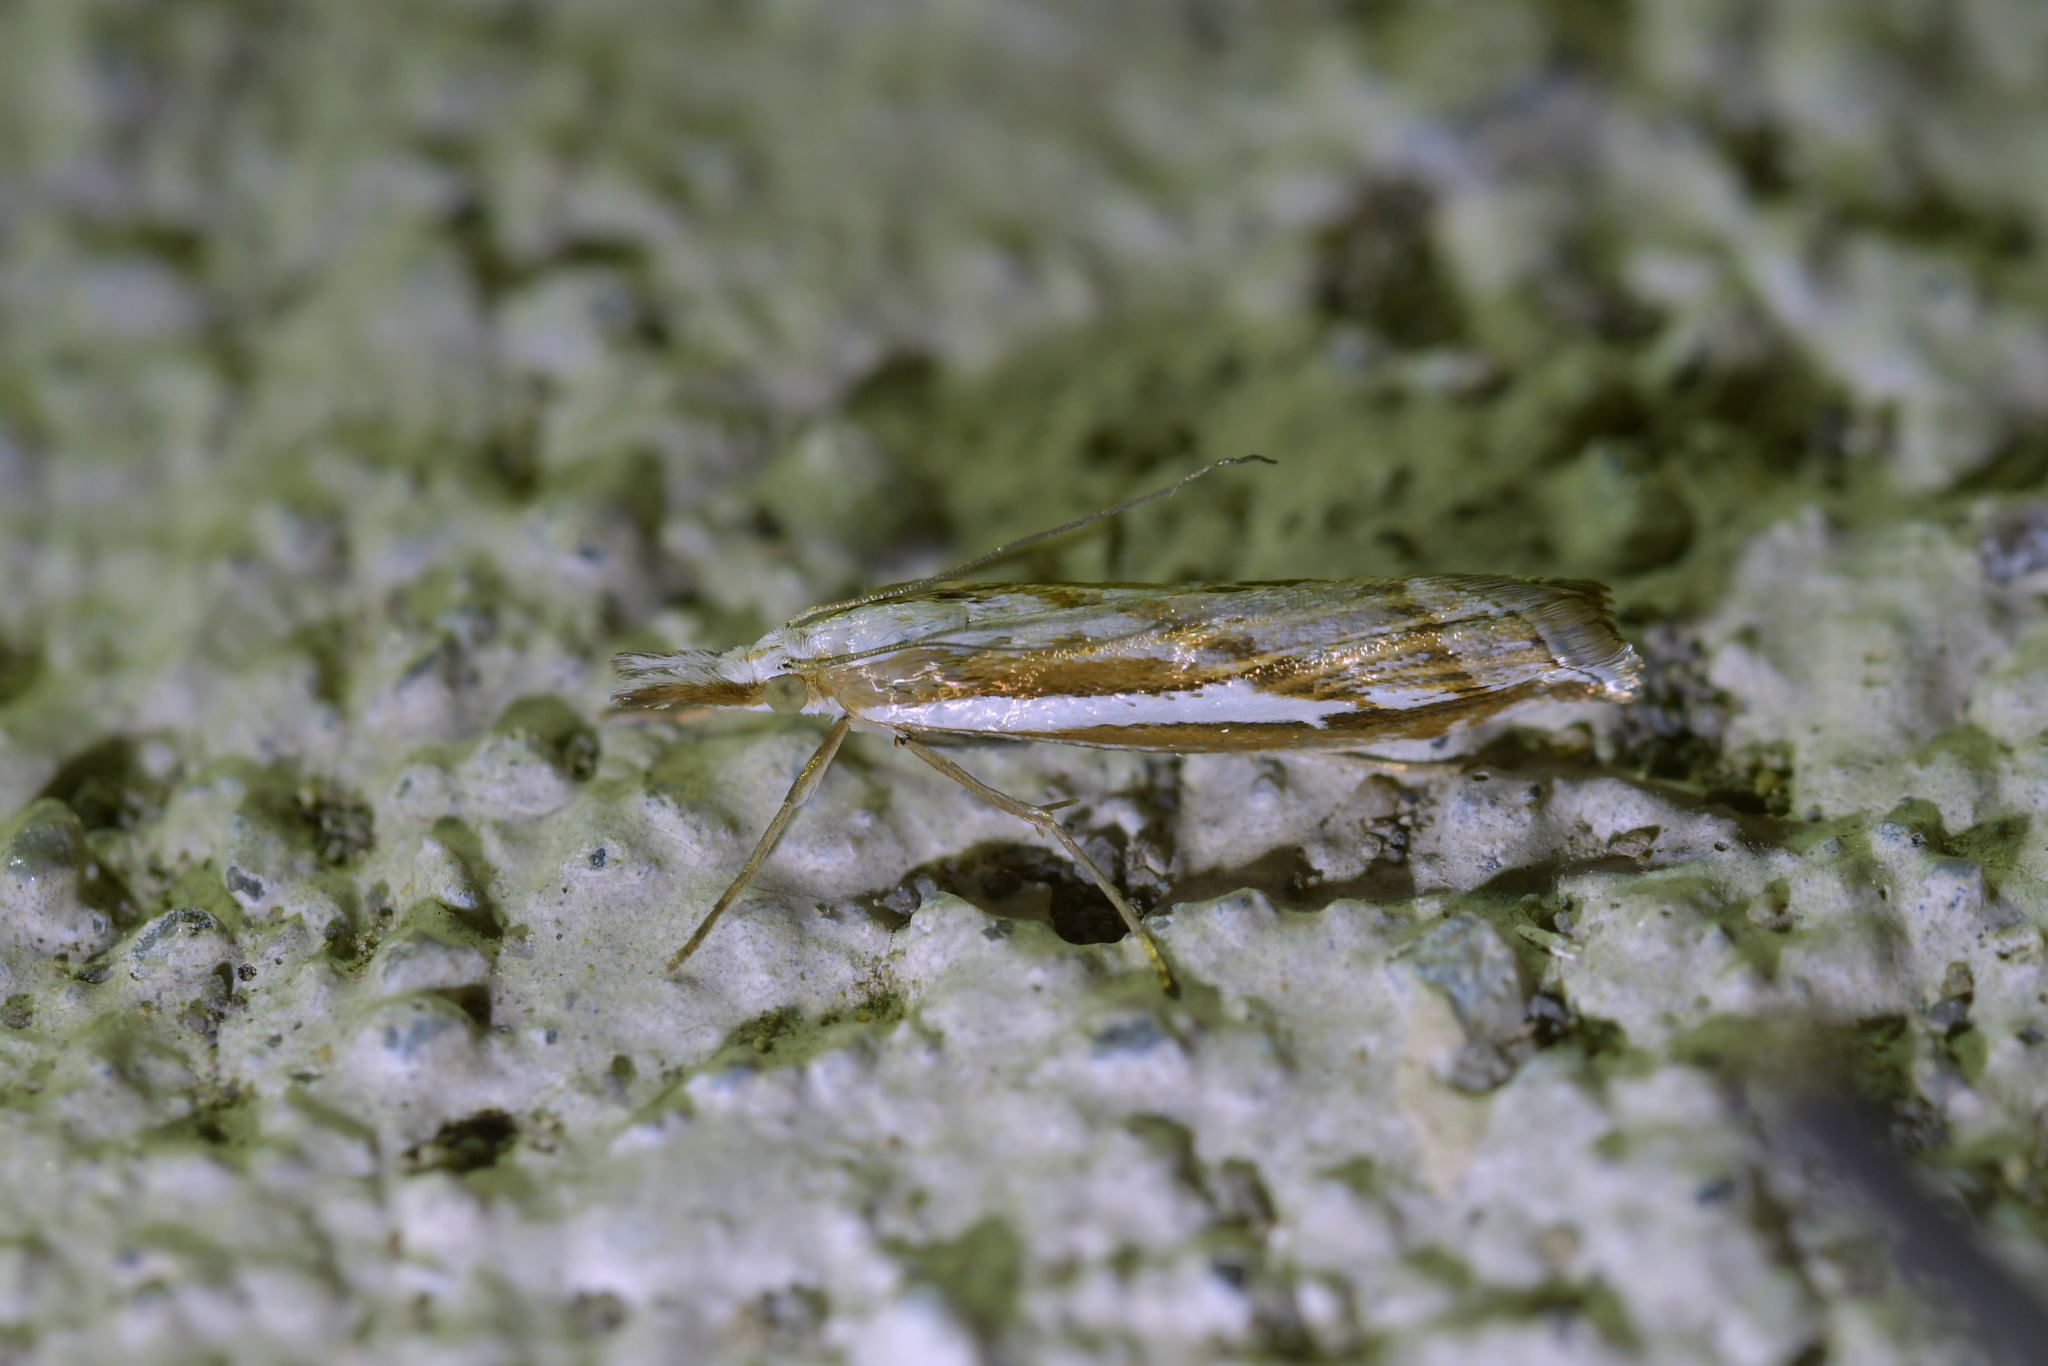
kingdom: Animalia
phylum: Arthropoda
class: Insecta
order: Lepidoptera
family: Crambidae
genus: Orocrambus
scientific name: Orocrambus vittellus
